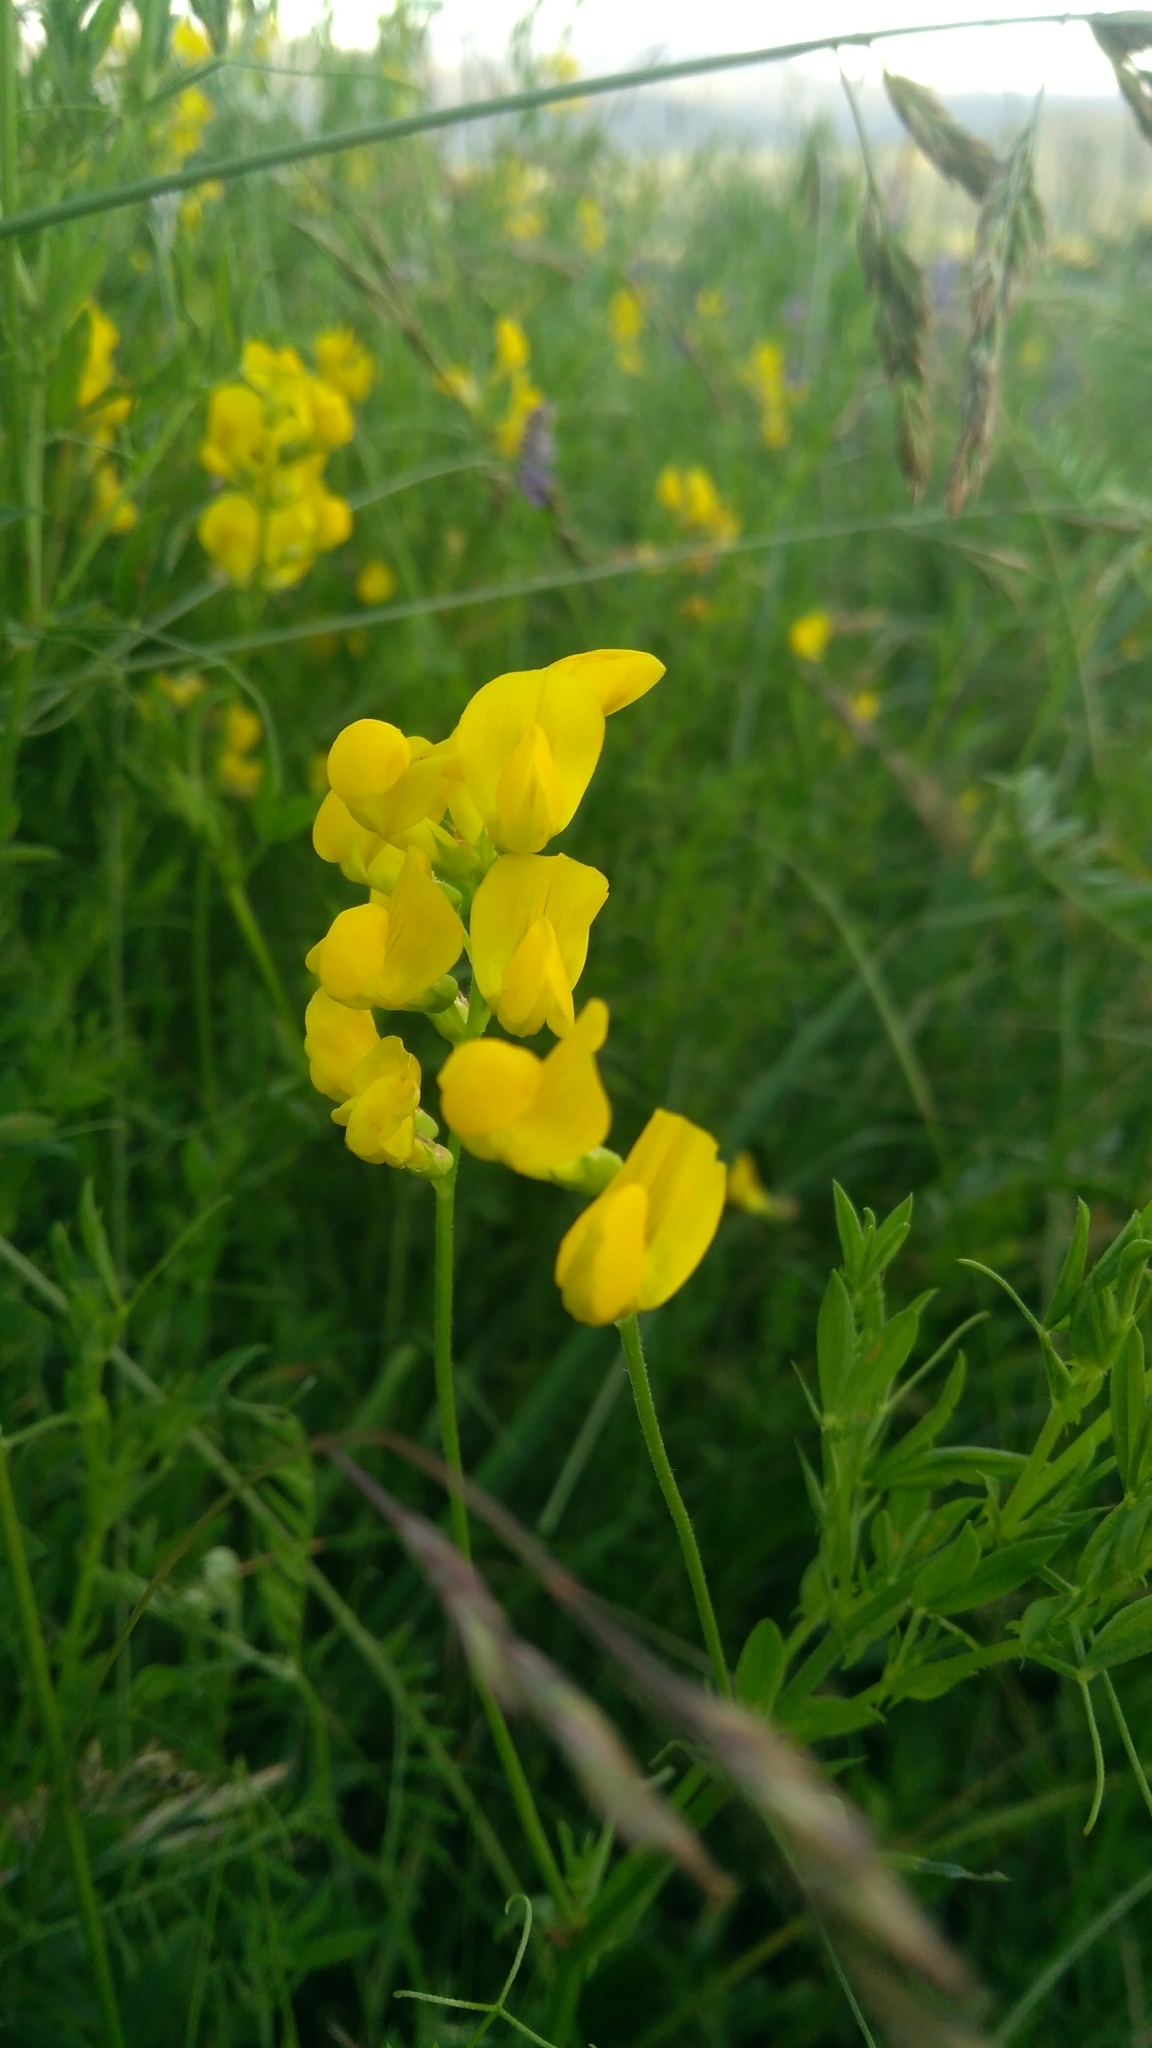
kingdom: Plantae
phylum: Tracheophyta
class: Magnoliopsida
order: Fabales
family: Fabaceae
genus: Lathyrus
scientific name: Lathyrus pratensis
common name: Meadow vetchling
